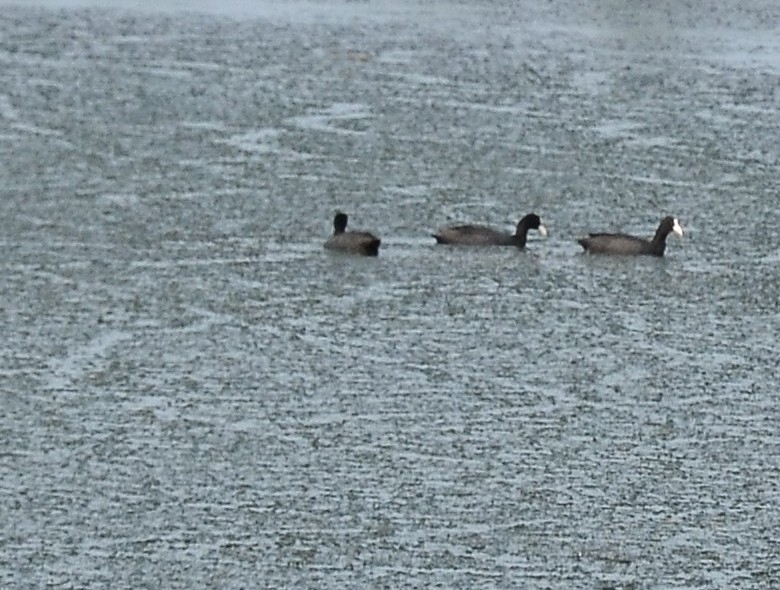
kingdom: Animalia
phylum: Chordata
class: Aves
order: Gruiformes
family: Rallidae
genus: Fulica
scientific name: Fulica atra
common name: Eurasian coot
